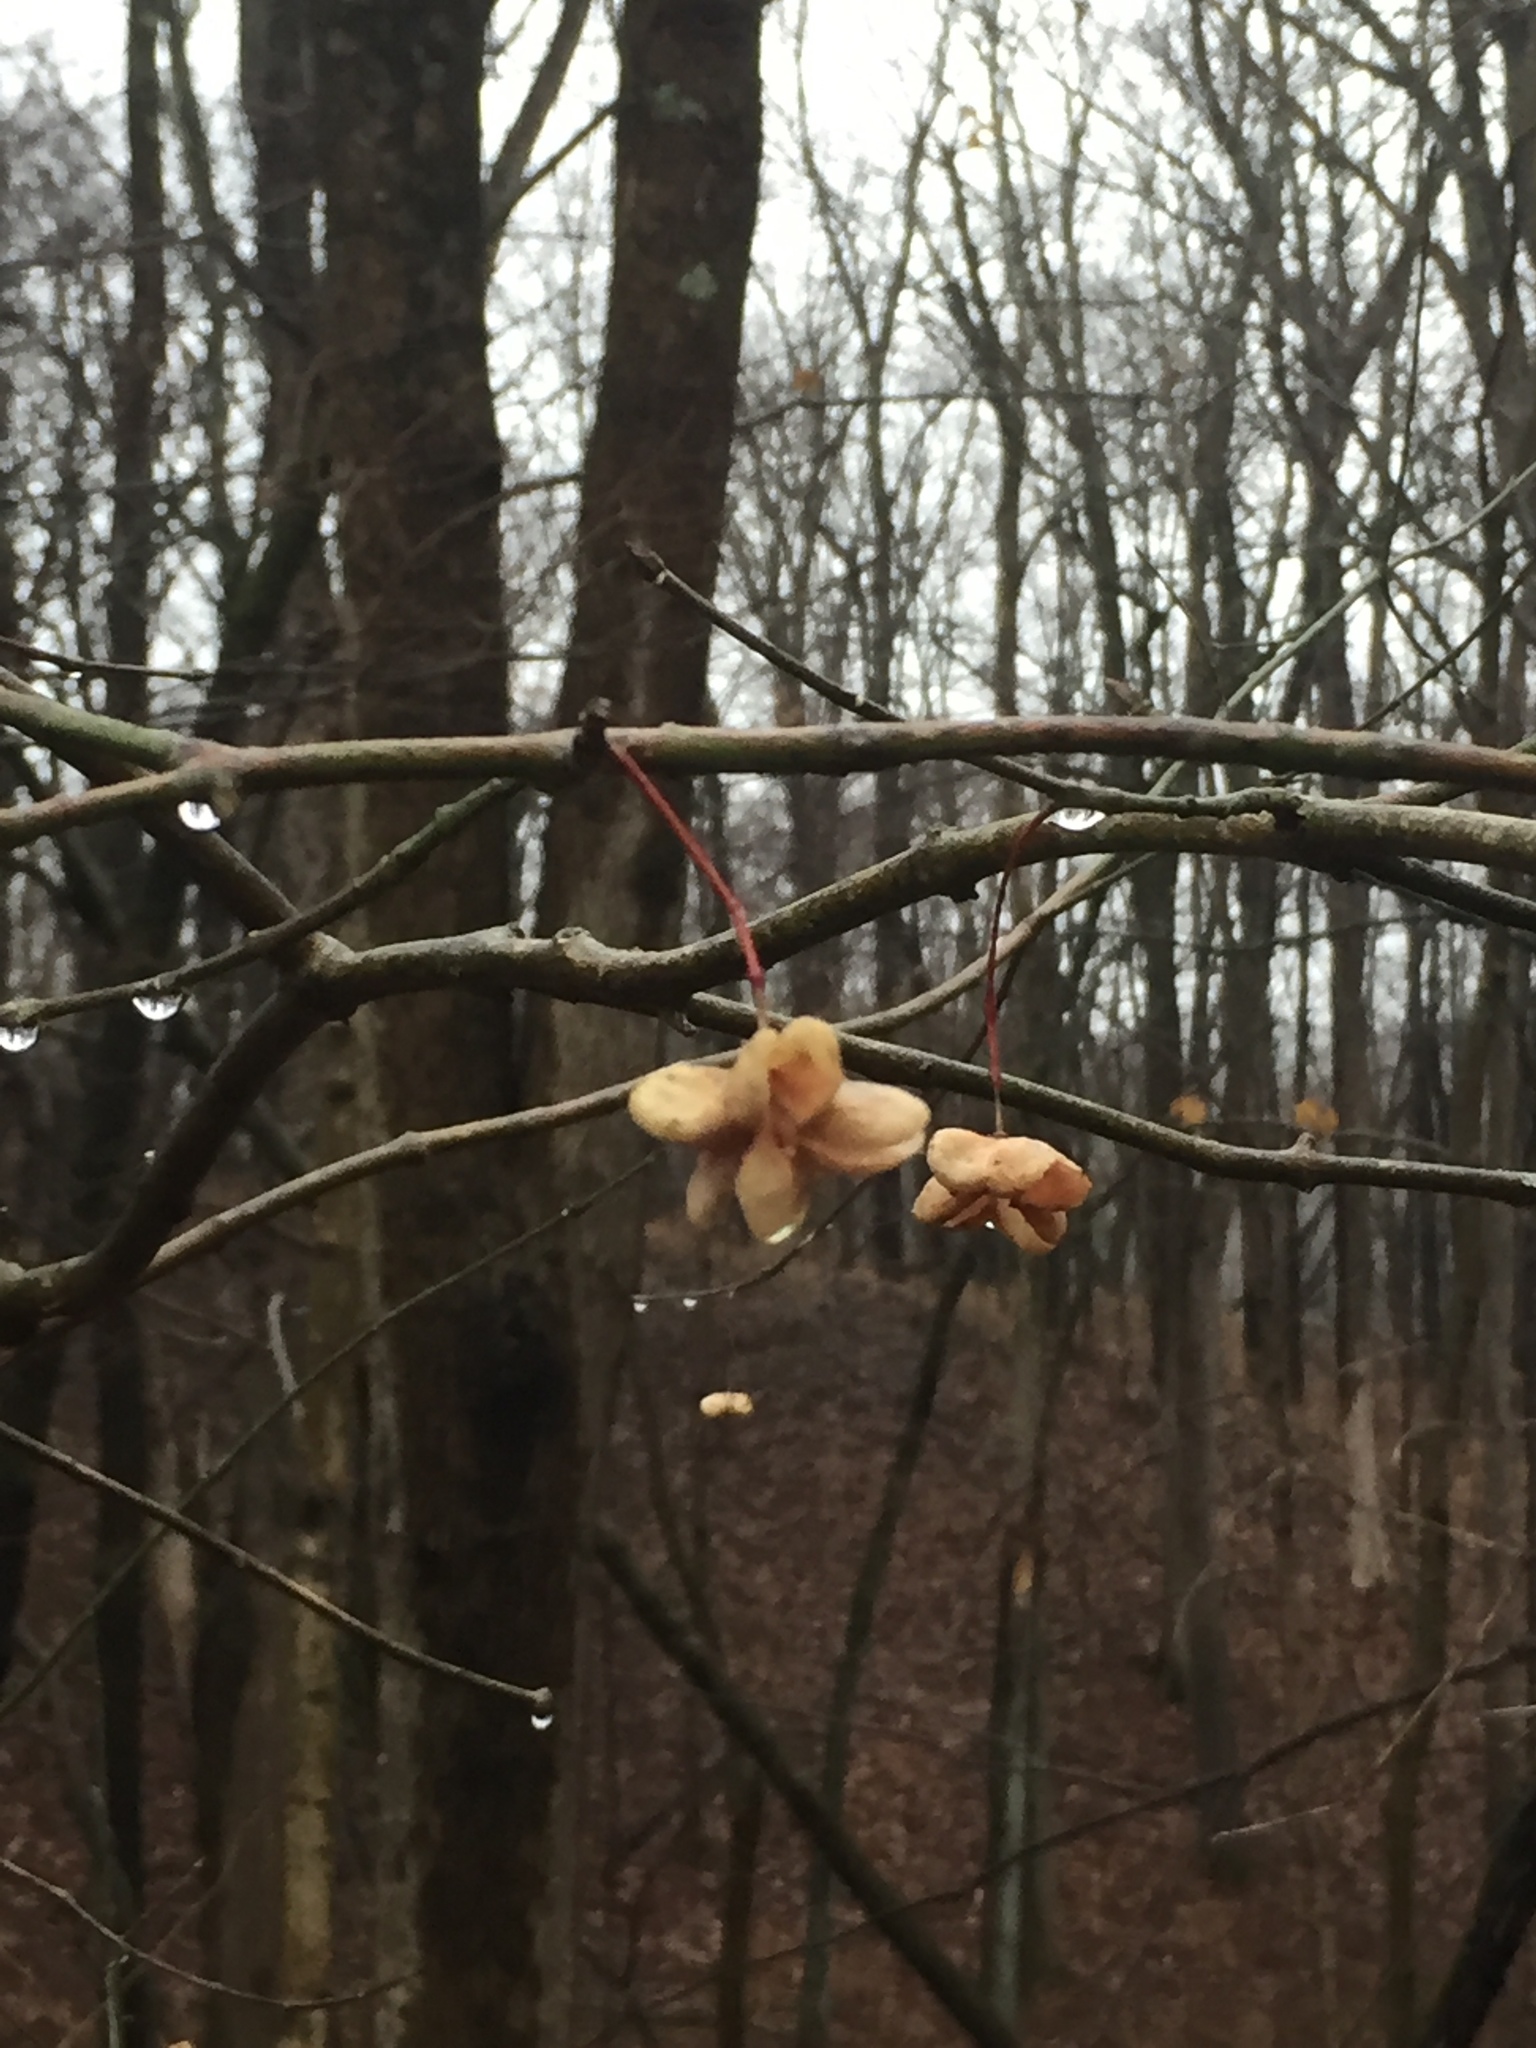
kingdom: Plantae
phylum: Tracheophyta
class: Magnoliopsida
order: Celastrales
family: Celastraceae
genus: Euonymus
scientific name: Euonymus atropurpureus
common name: Eastern wahoo
